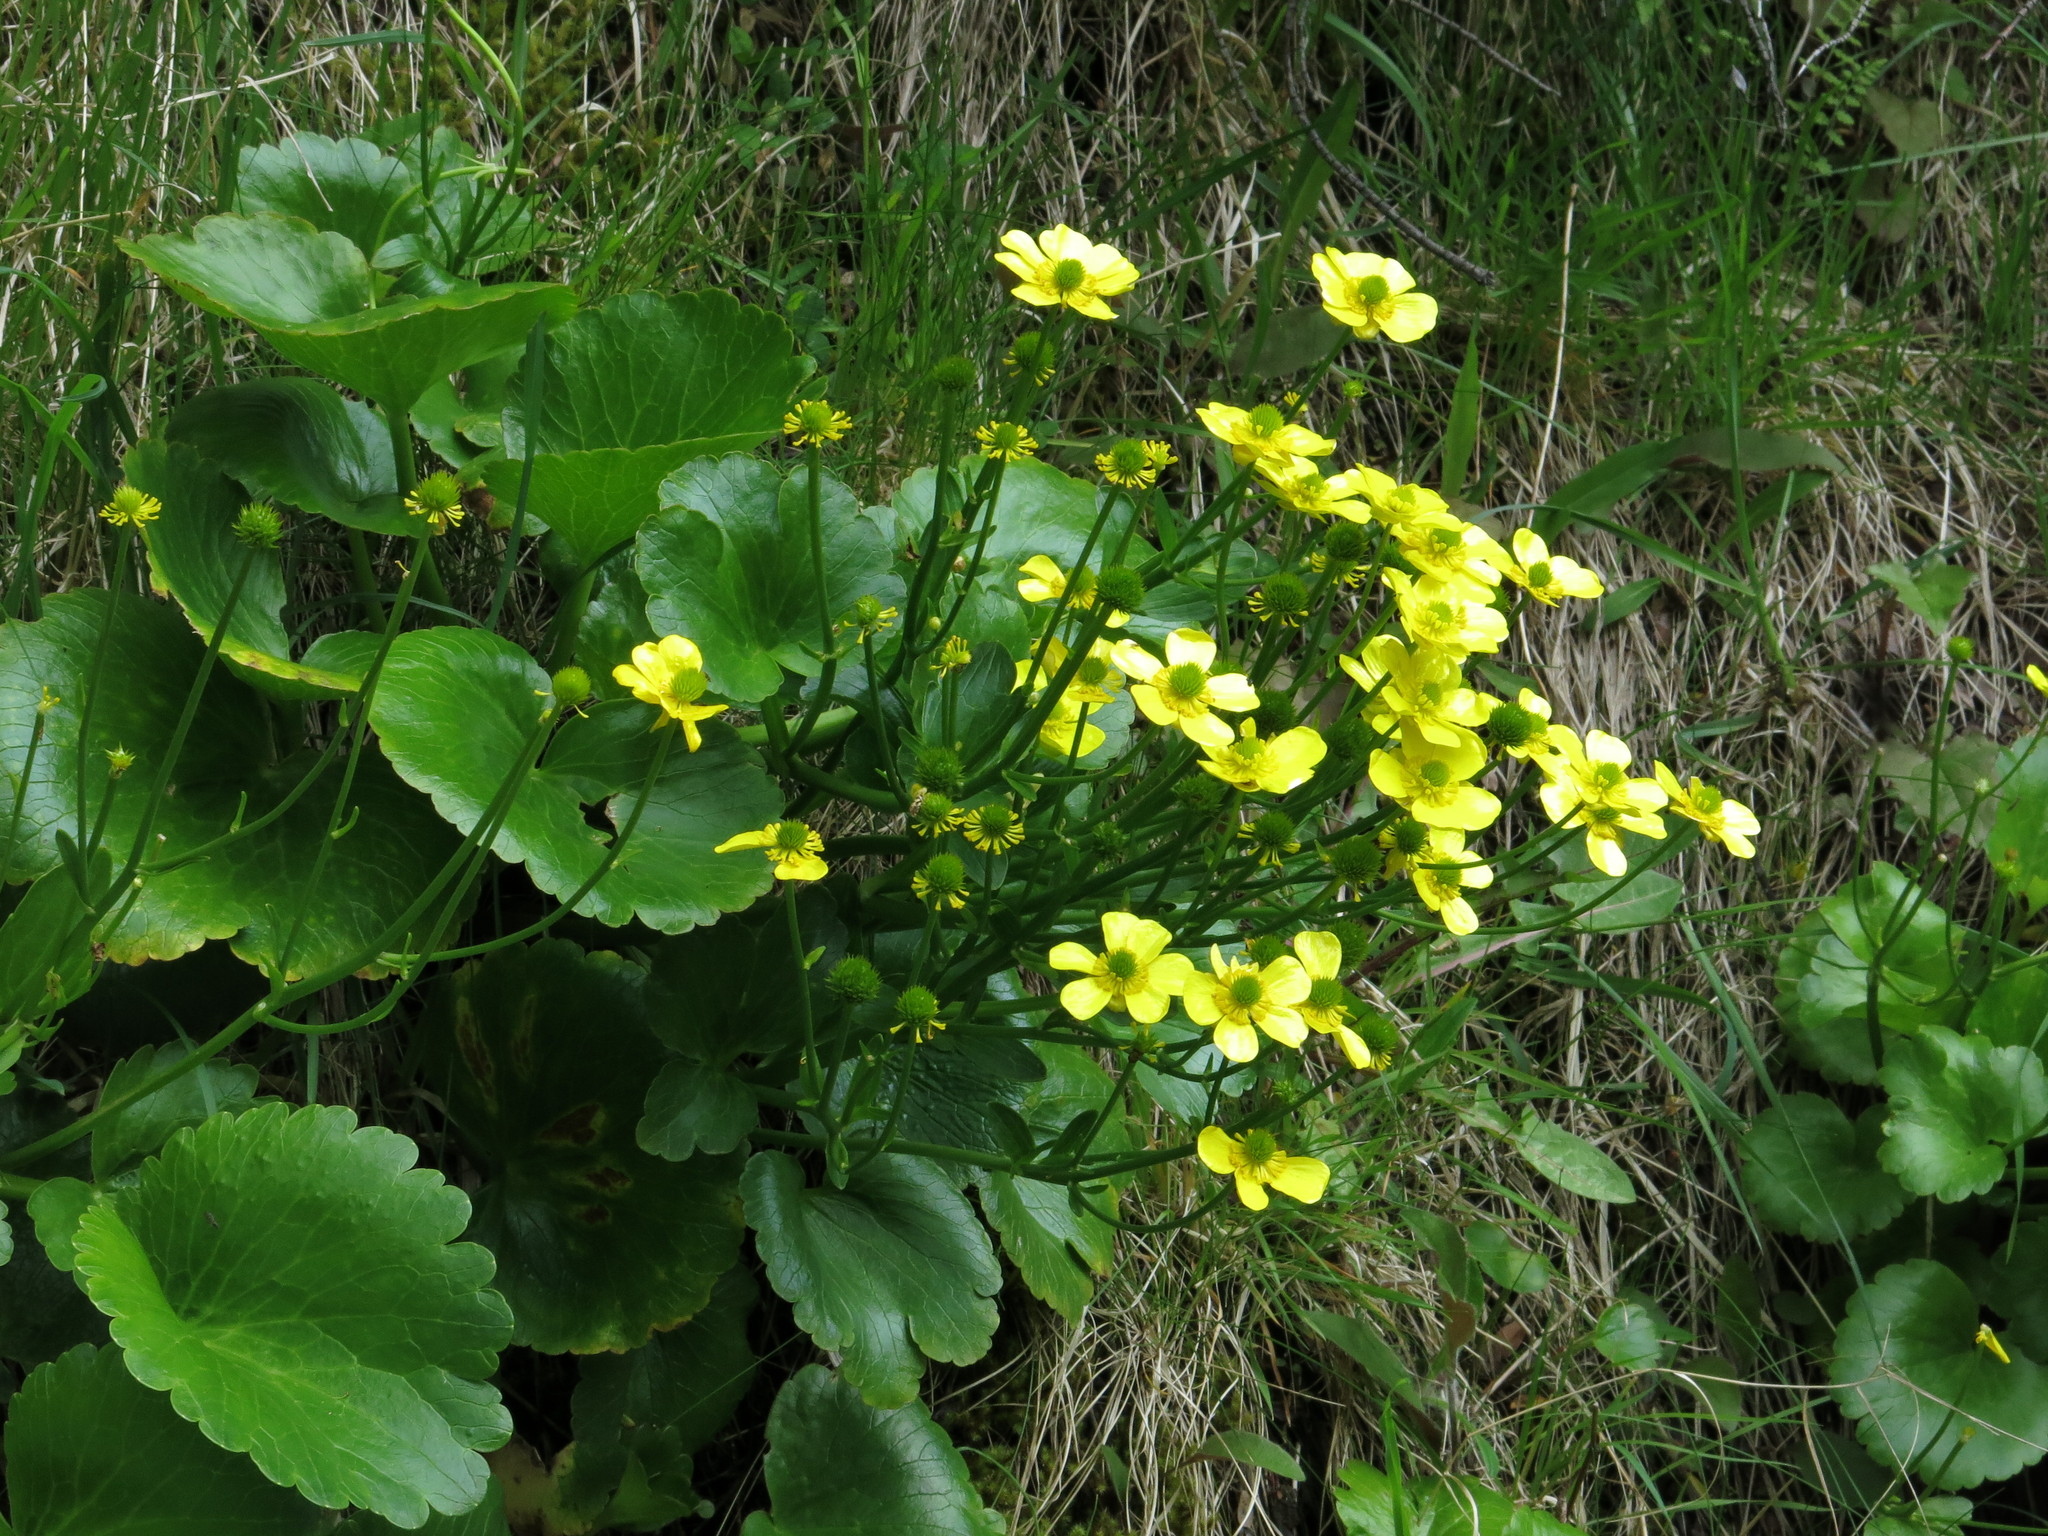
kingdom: Plantae
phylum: Tracheophyta
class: Magnoliopsida
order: Ranunculales
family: Ranunculaceae
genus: Ranunculus
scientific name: Ranunculus insignis
